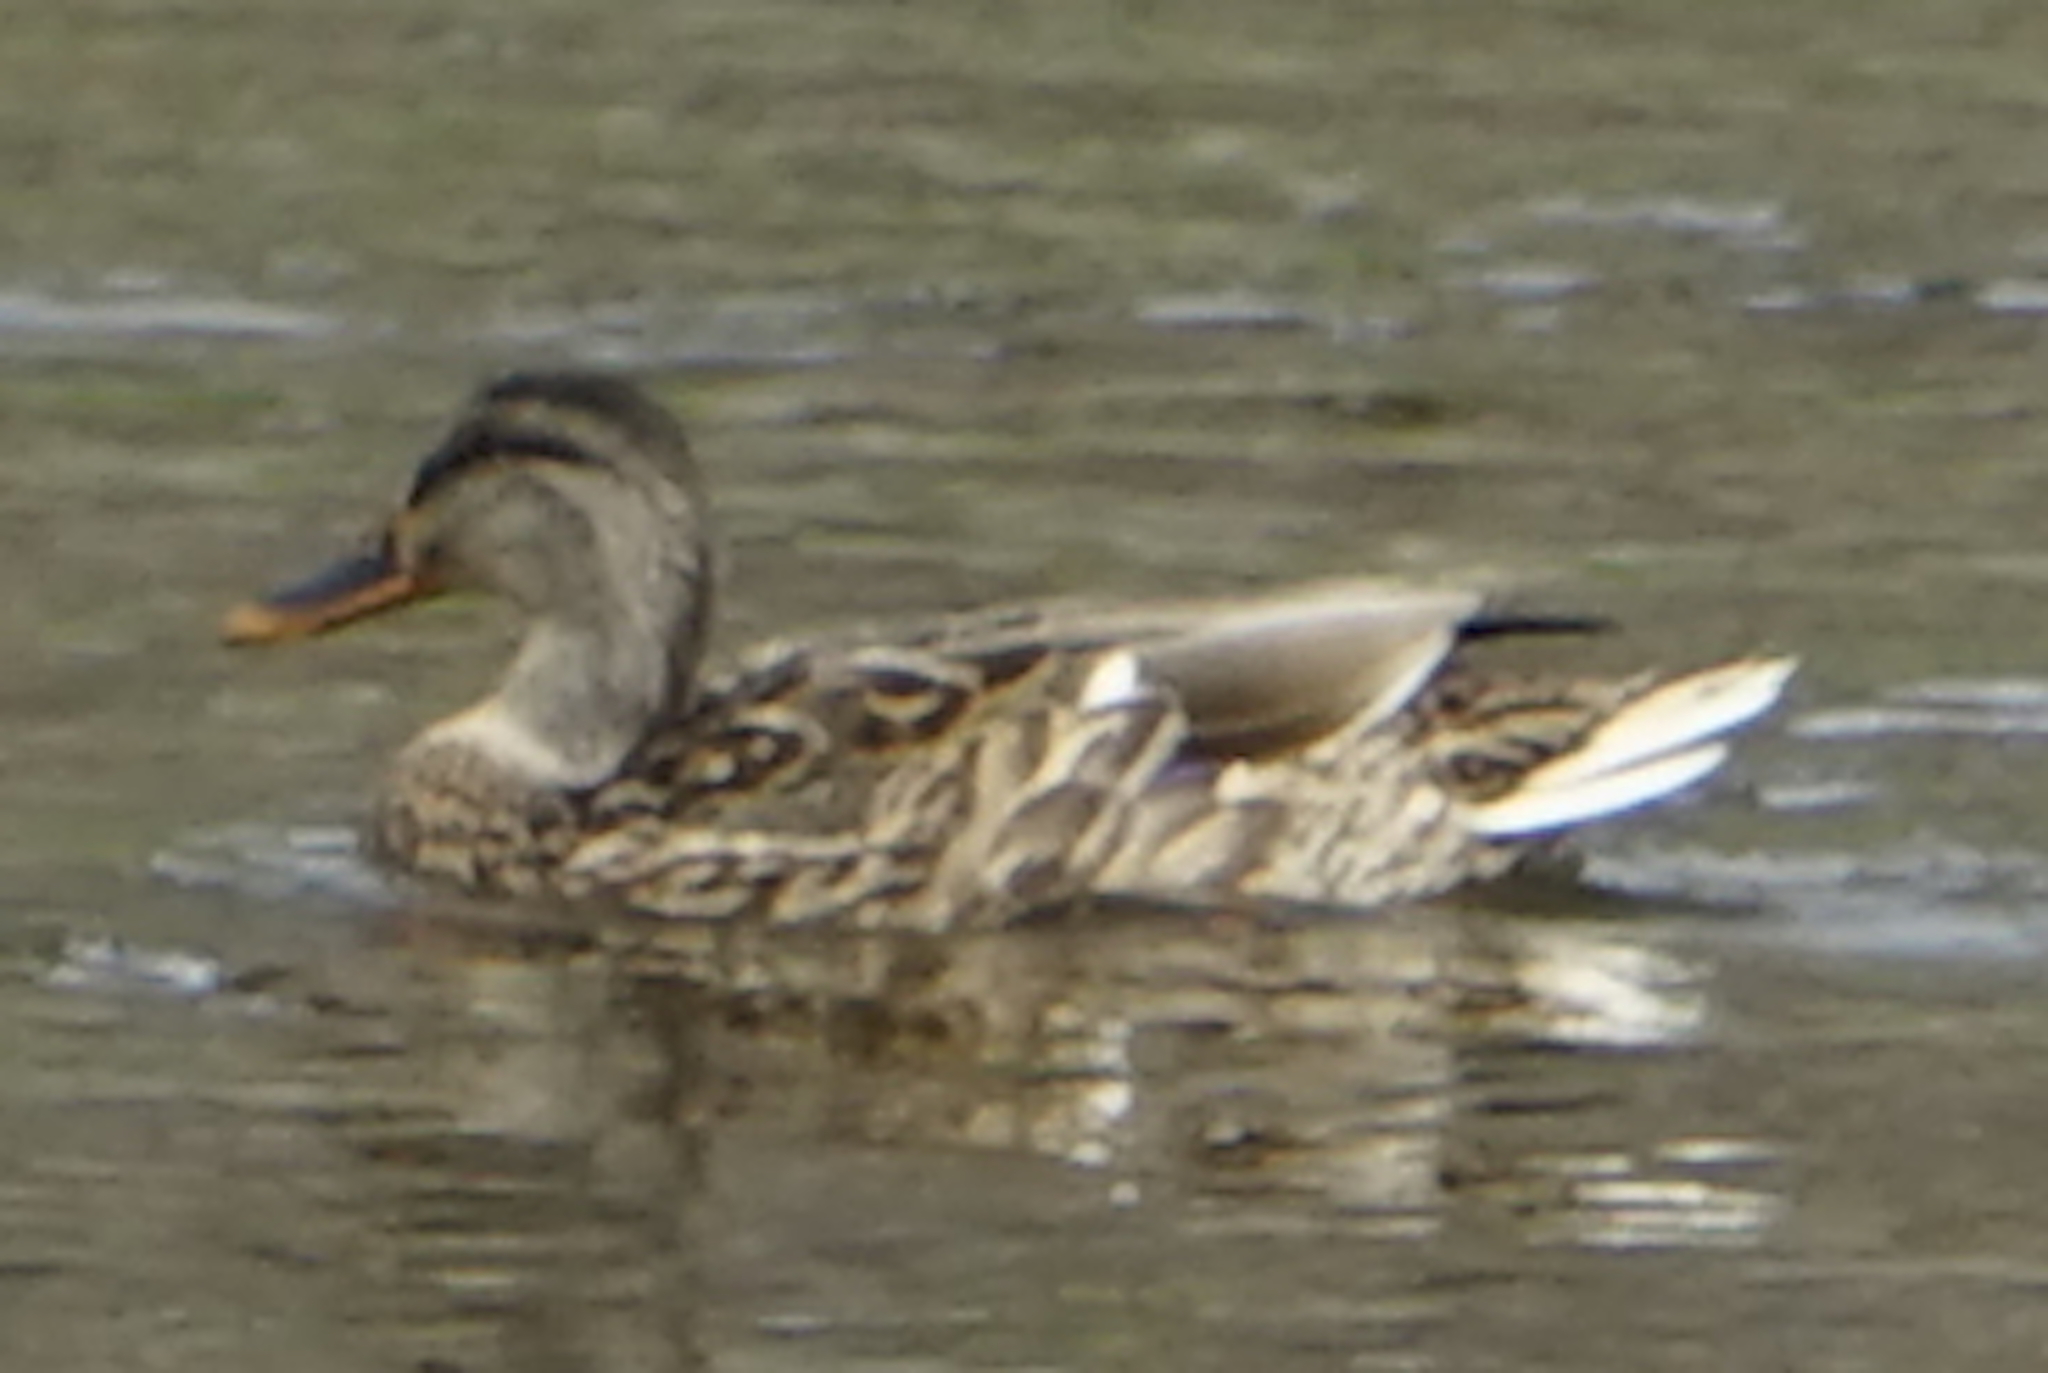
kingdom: Animalia
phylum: Chordata
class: Aves
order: Anseriformes
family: Anatidae
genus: Anas
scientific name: Anas
